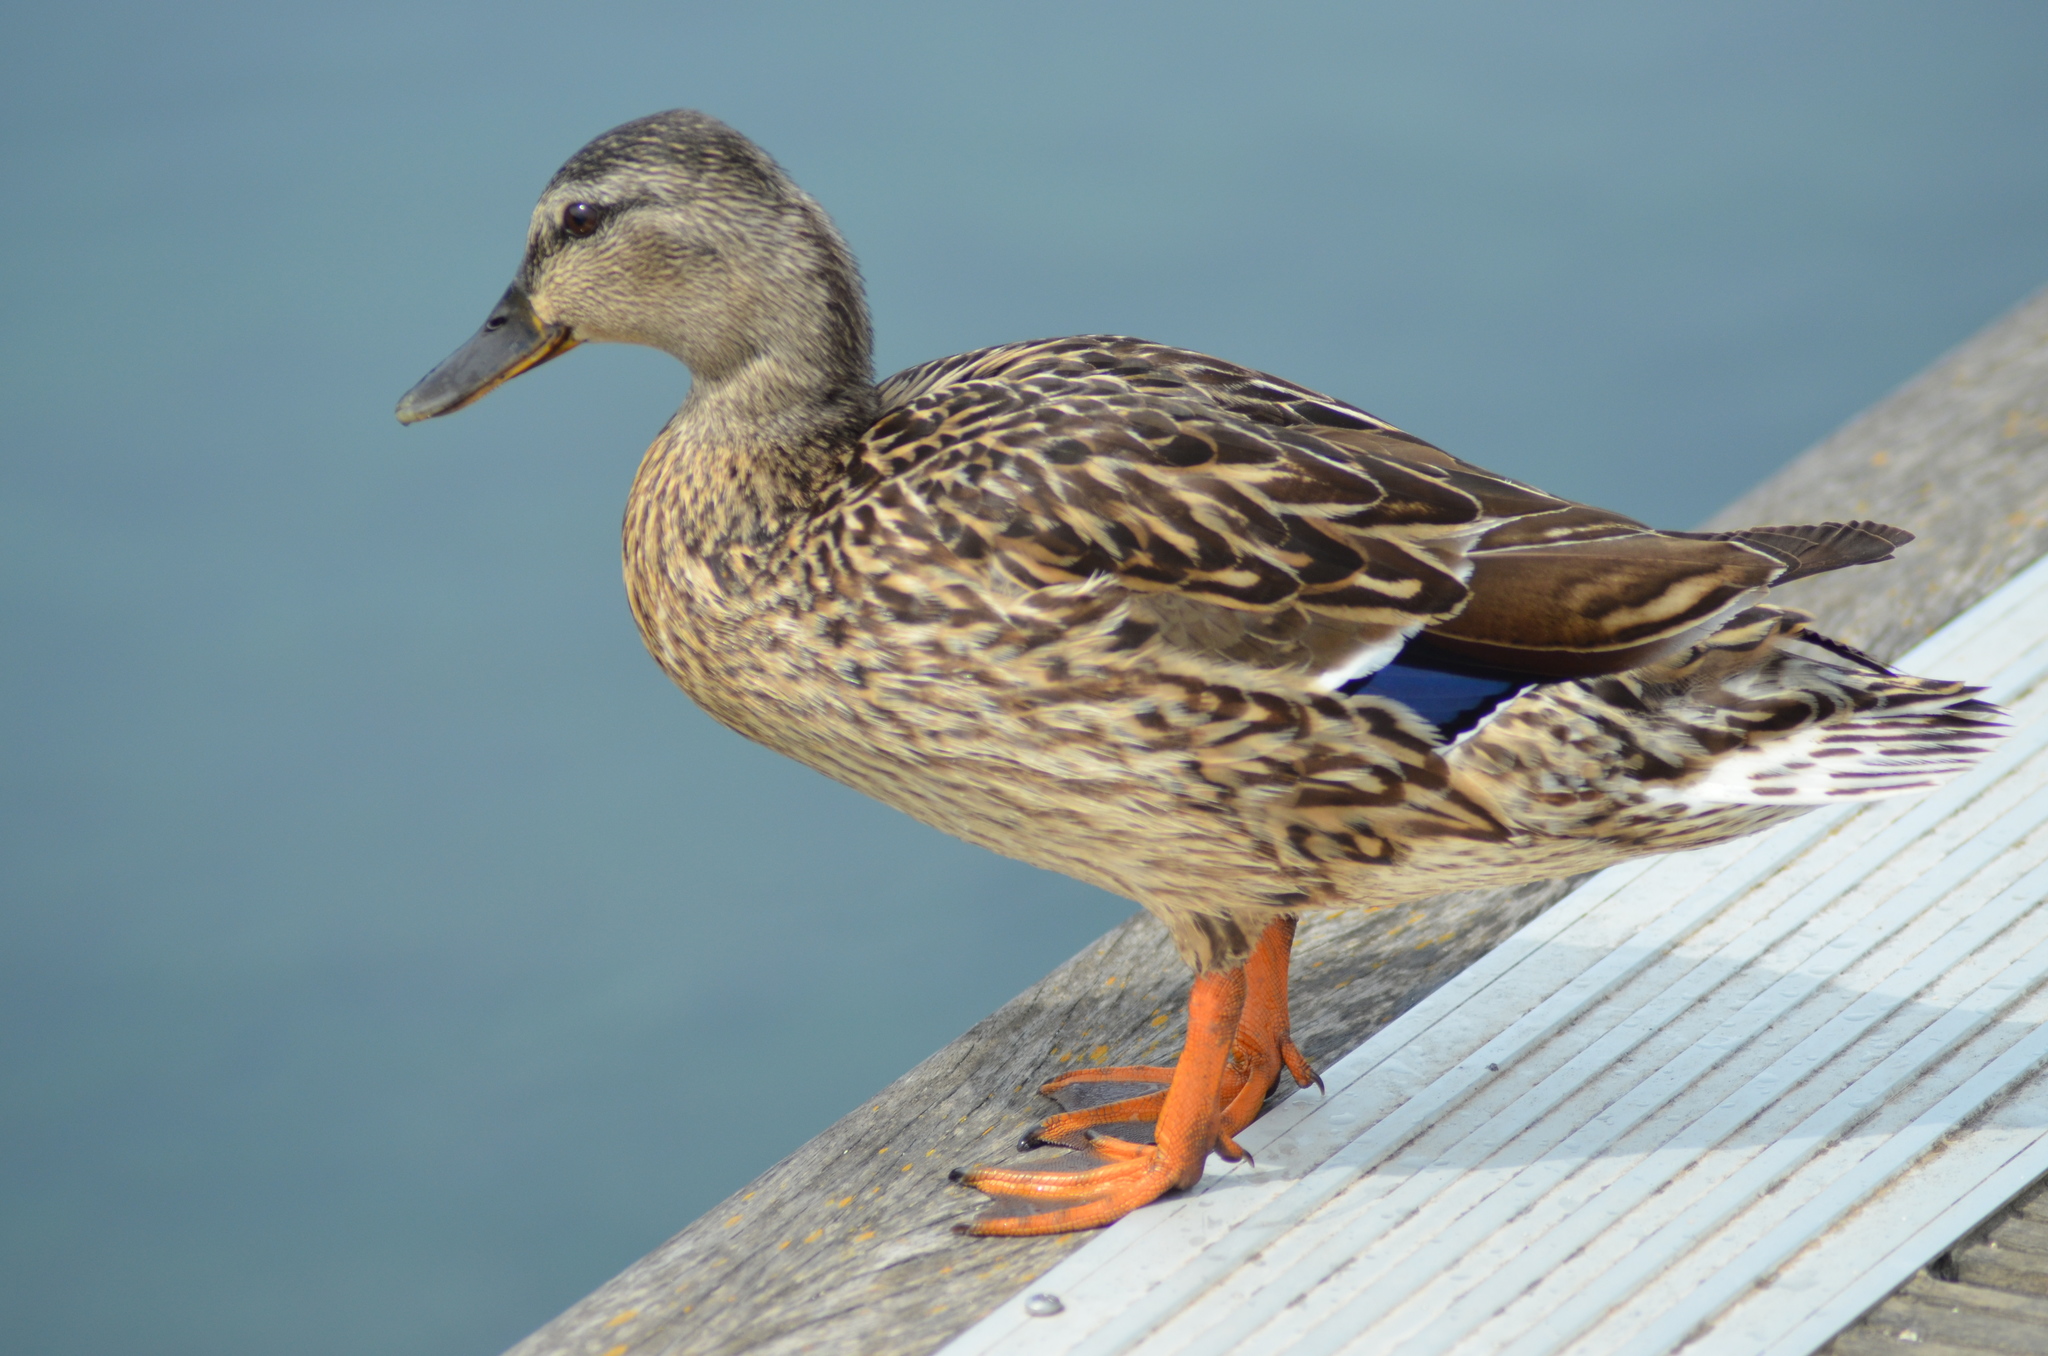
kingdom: Animalia
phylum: Chordata
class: Aves
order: Anseriformes
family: Anatidae
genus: Anas
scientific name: Anas platyrhynchos
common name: Mallard
